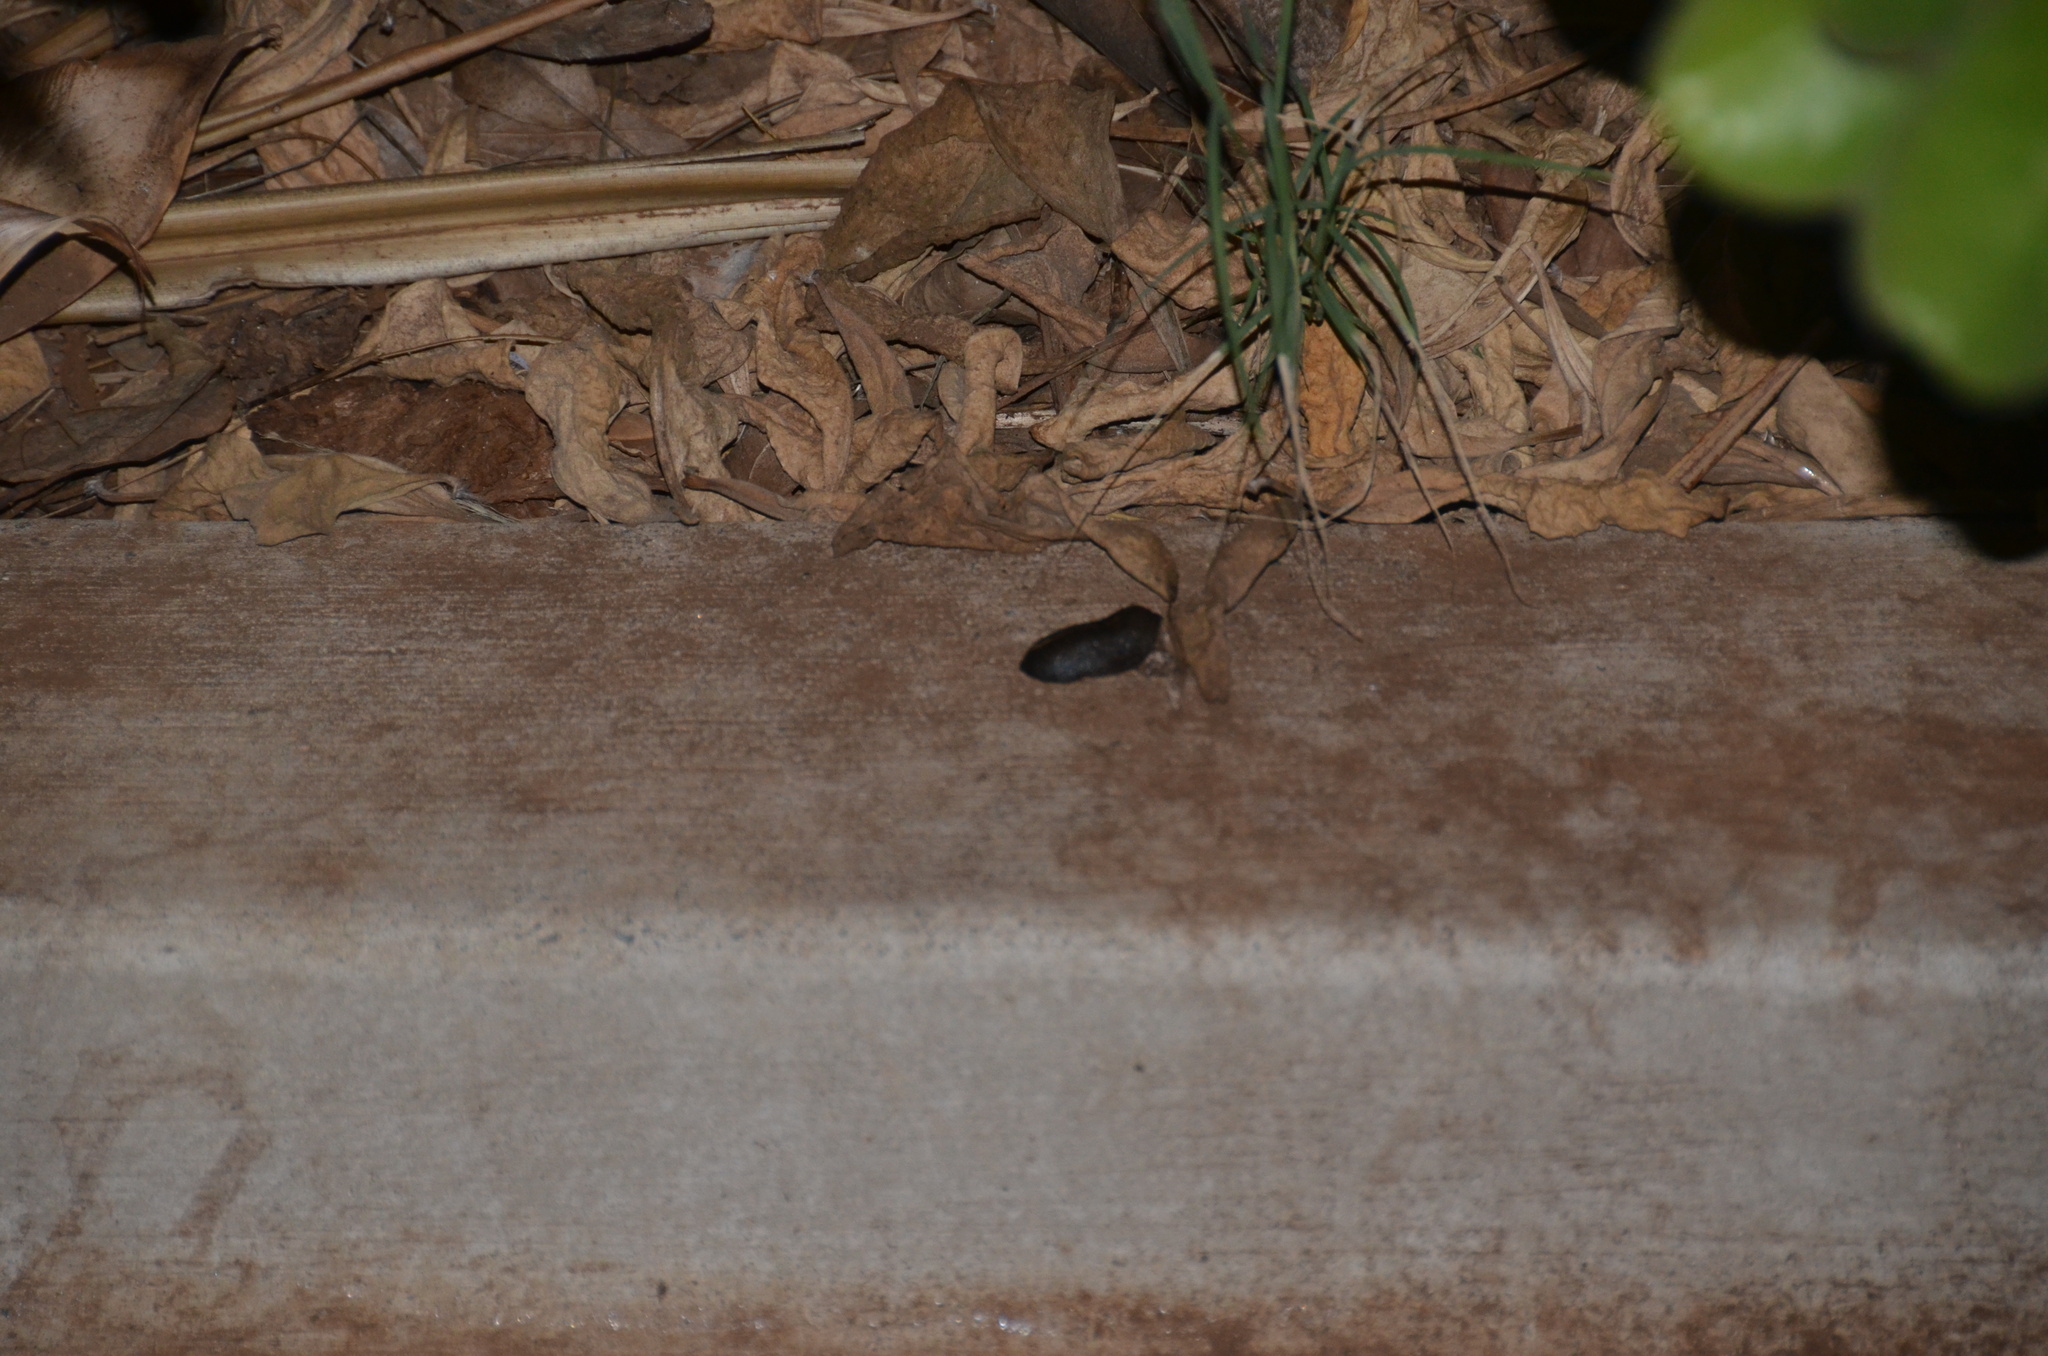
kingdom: Animalia
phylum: Mollusca
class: Gastropoda
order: Systellommatophora
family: Veronicellidae
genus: Laevicaulis
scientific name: Laevicaulis alte
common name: Tropical leatherleaf
